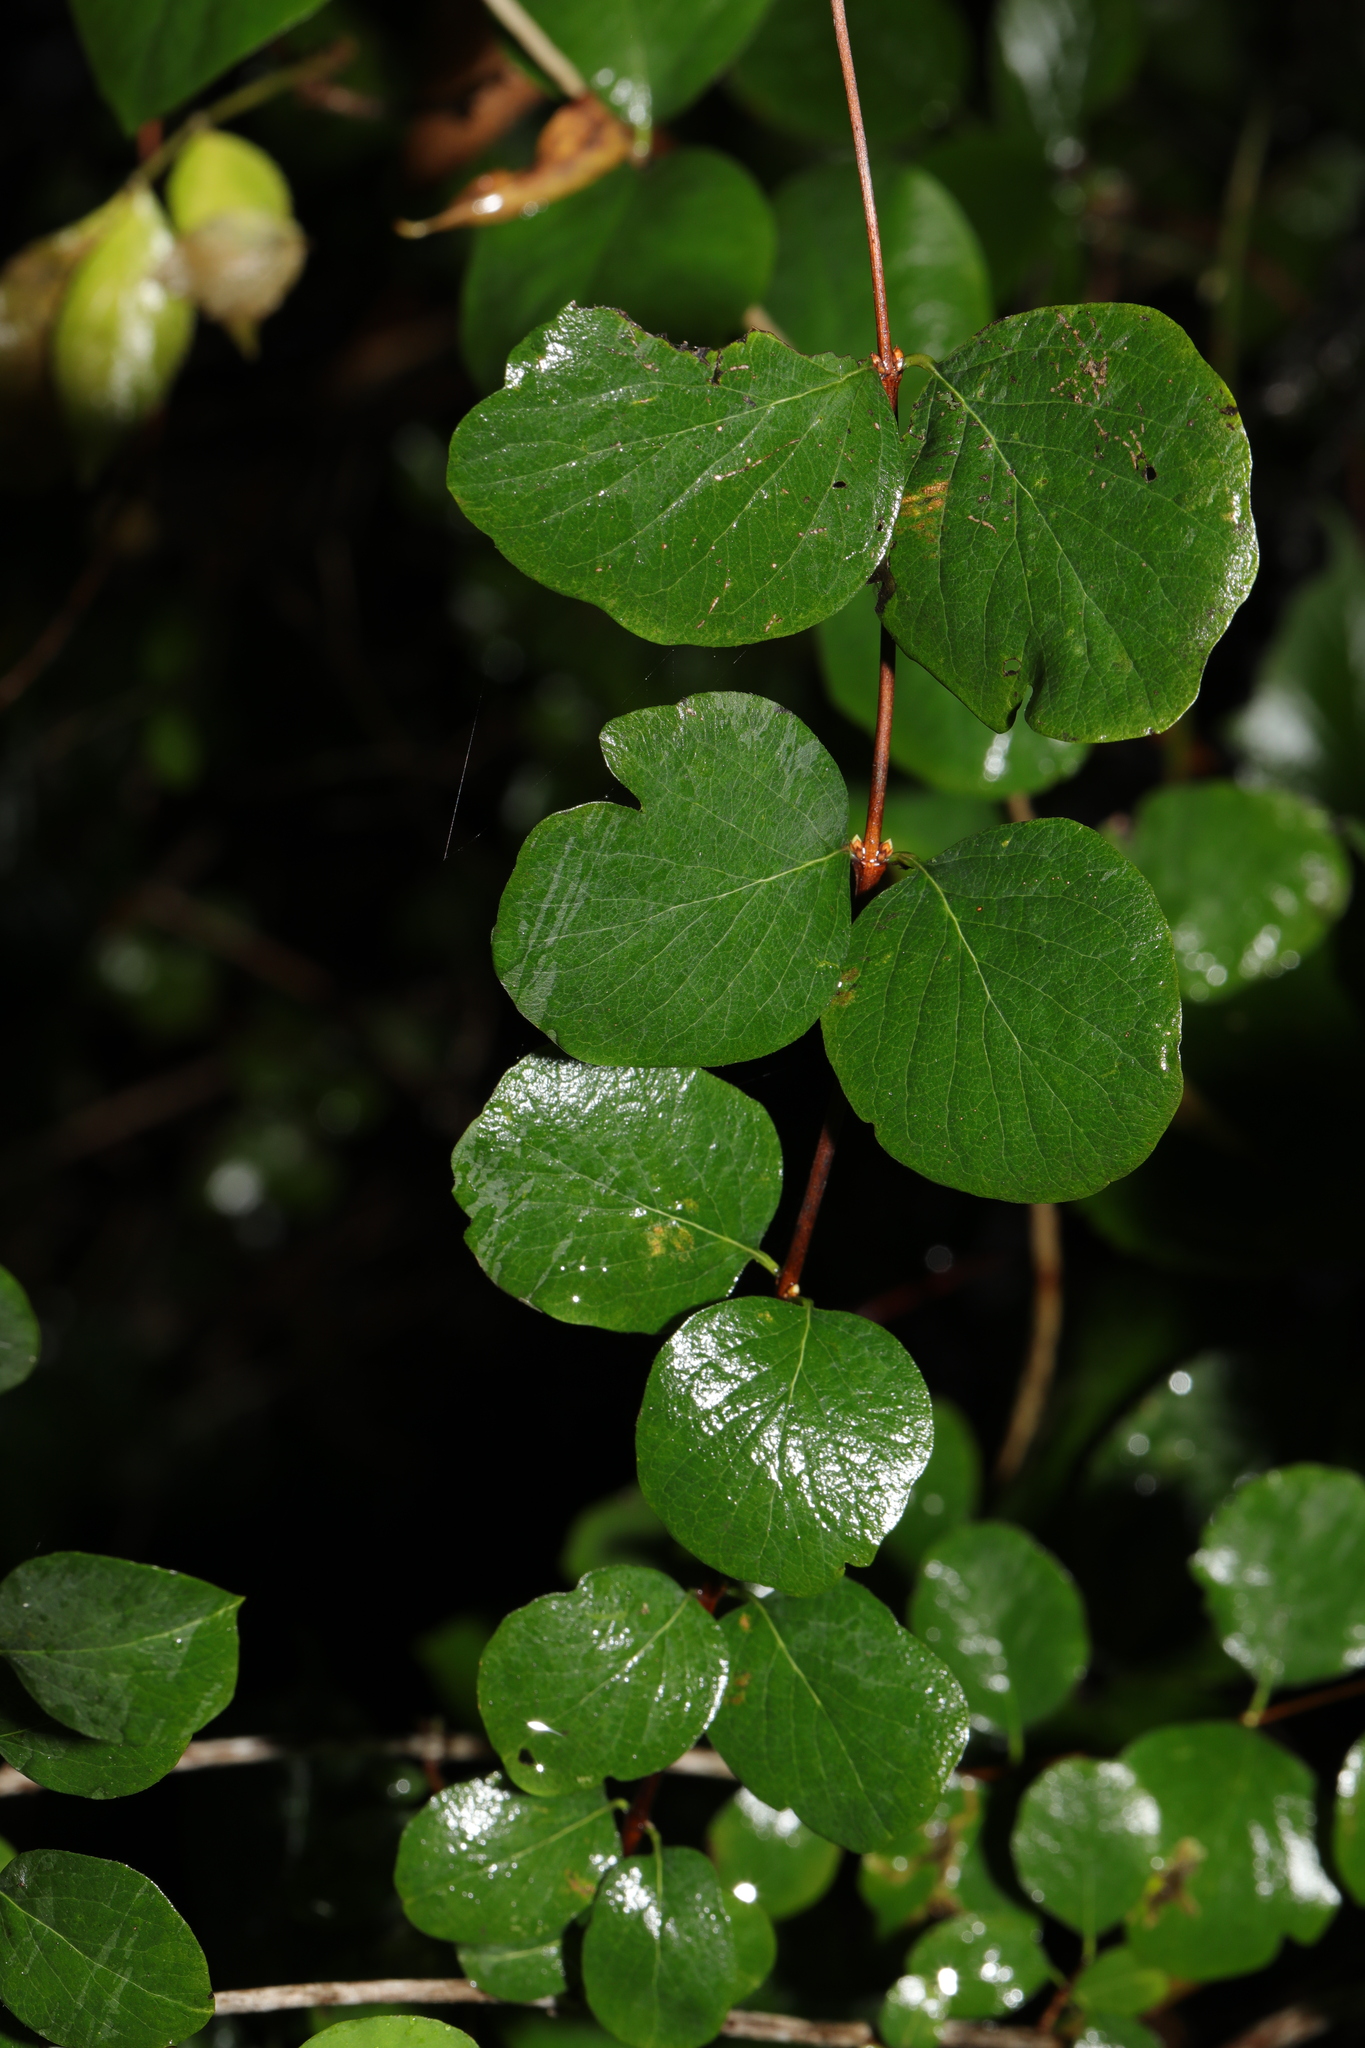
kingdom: Plantae
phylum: Tracheophyta
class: Magnoliopsida
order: Dipsacales
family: Caprifoliaceae
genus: Symphoricarpos
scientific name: Symphoricarpos albus
